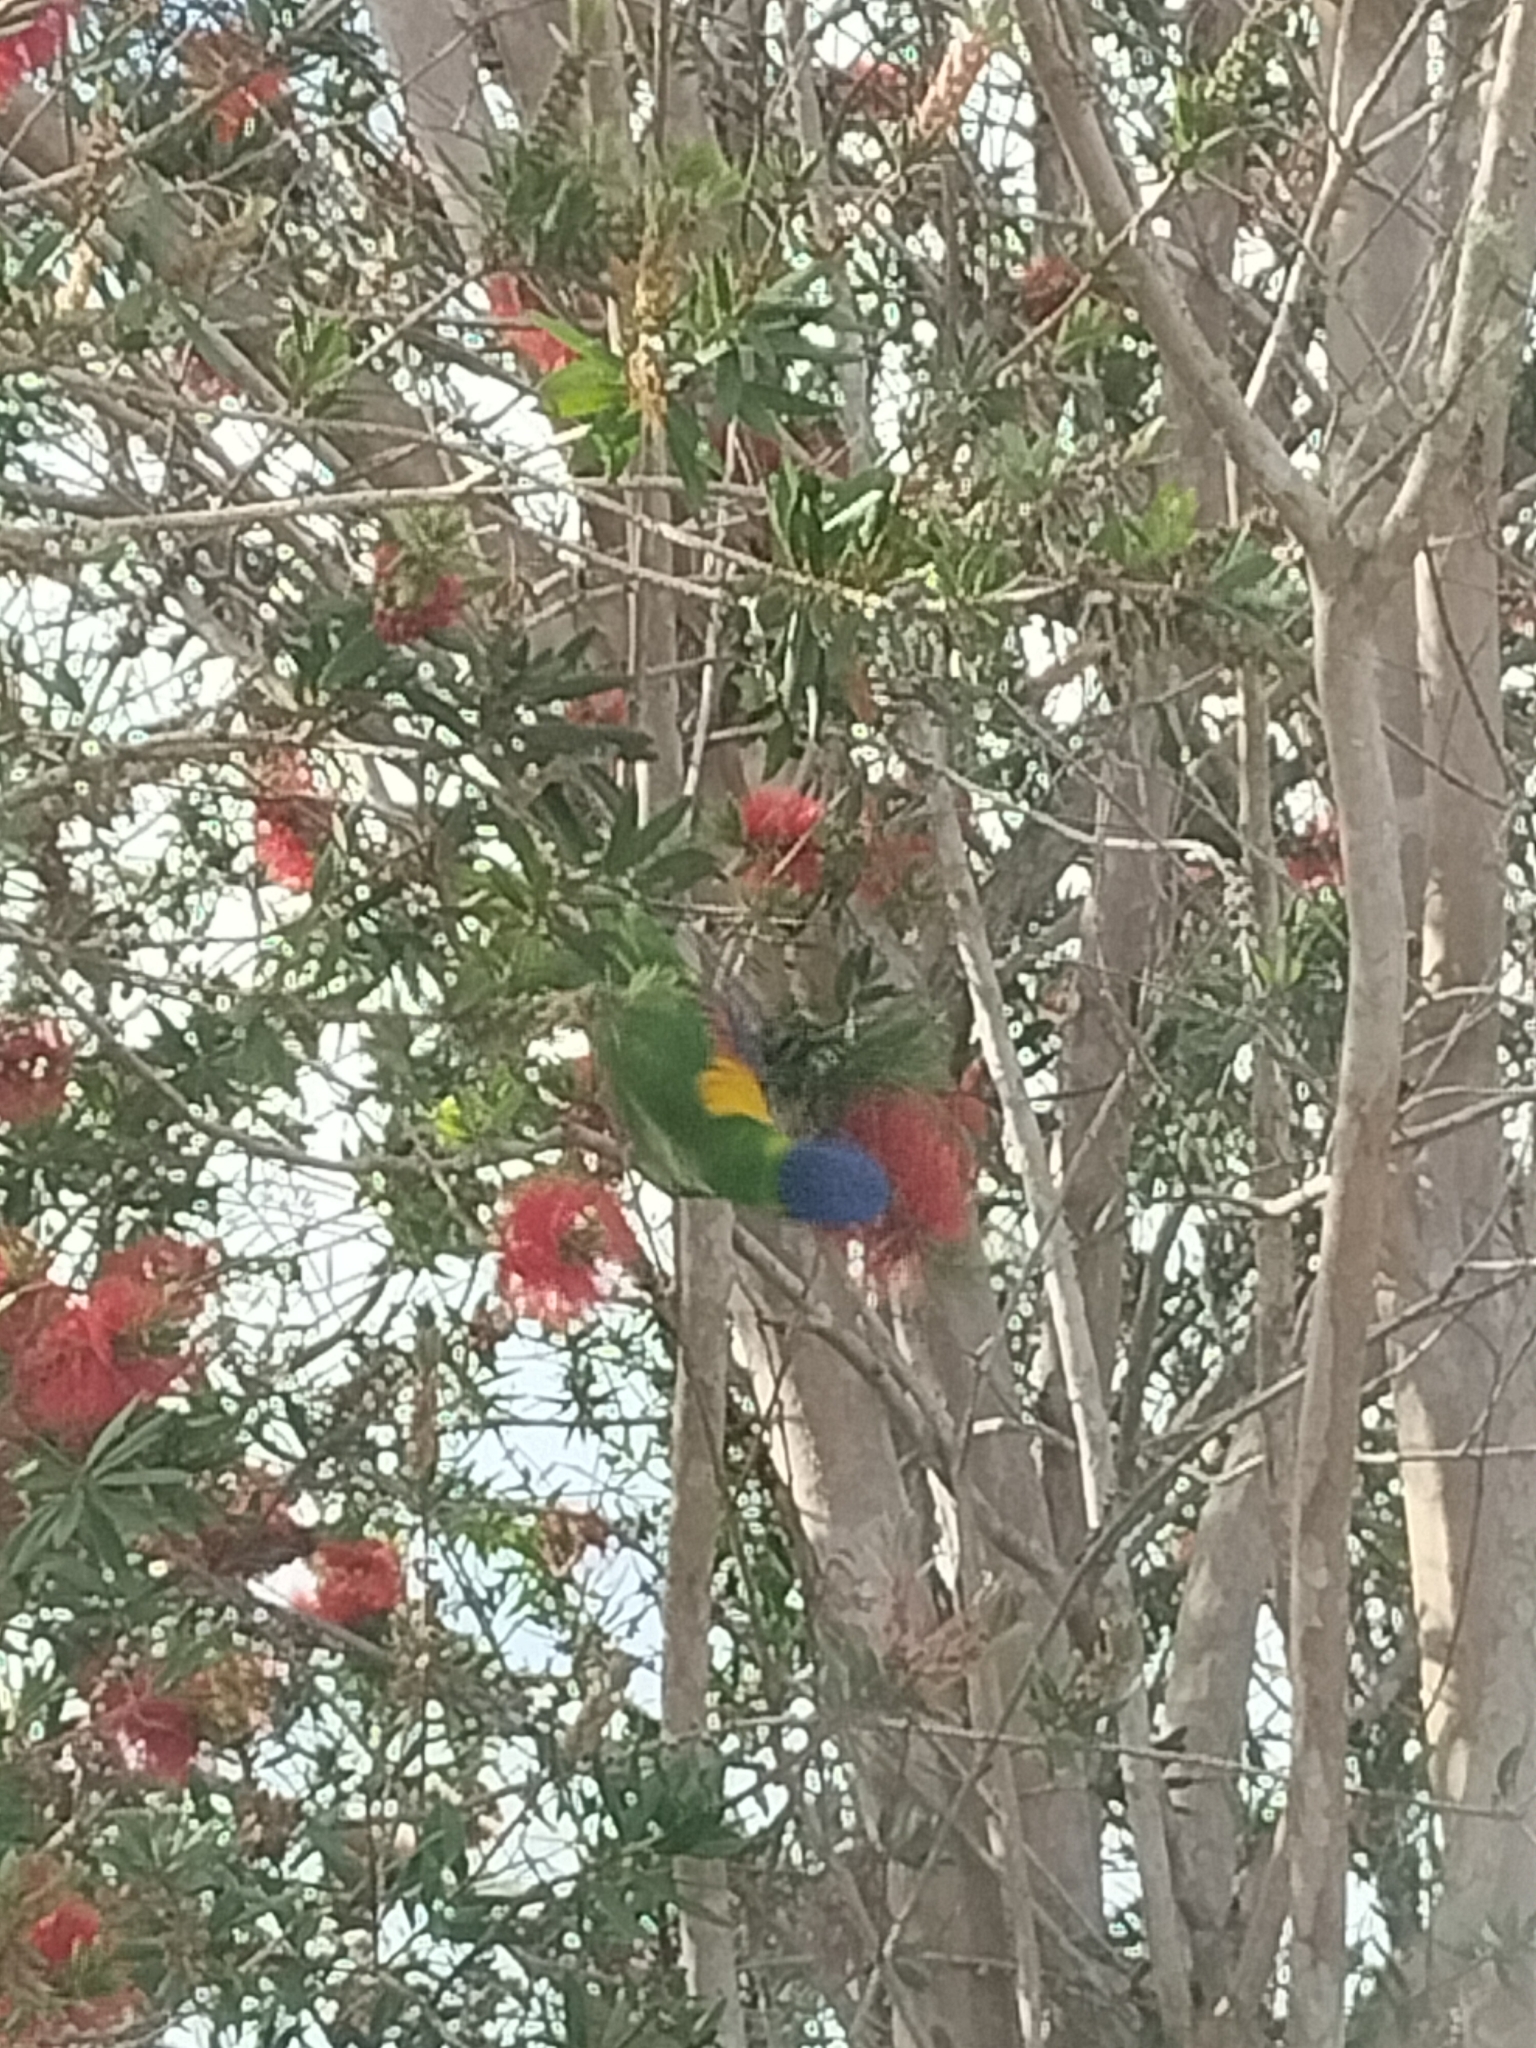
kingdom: Animalia
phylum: Chordata
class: Aves
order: Psittaciformes
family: Psittacidae
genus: Trichoglossus
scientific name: Trichoglossus haematodus
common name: Coconut lorikeet
